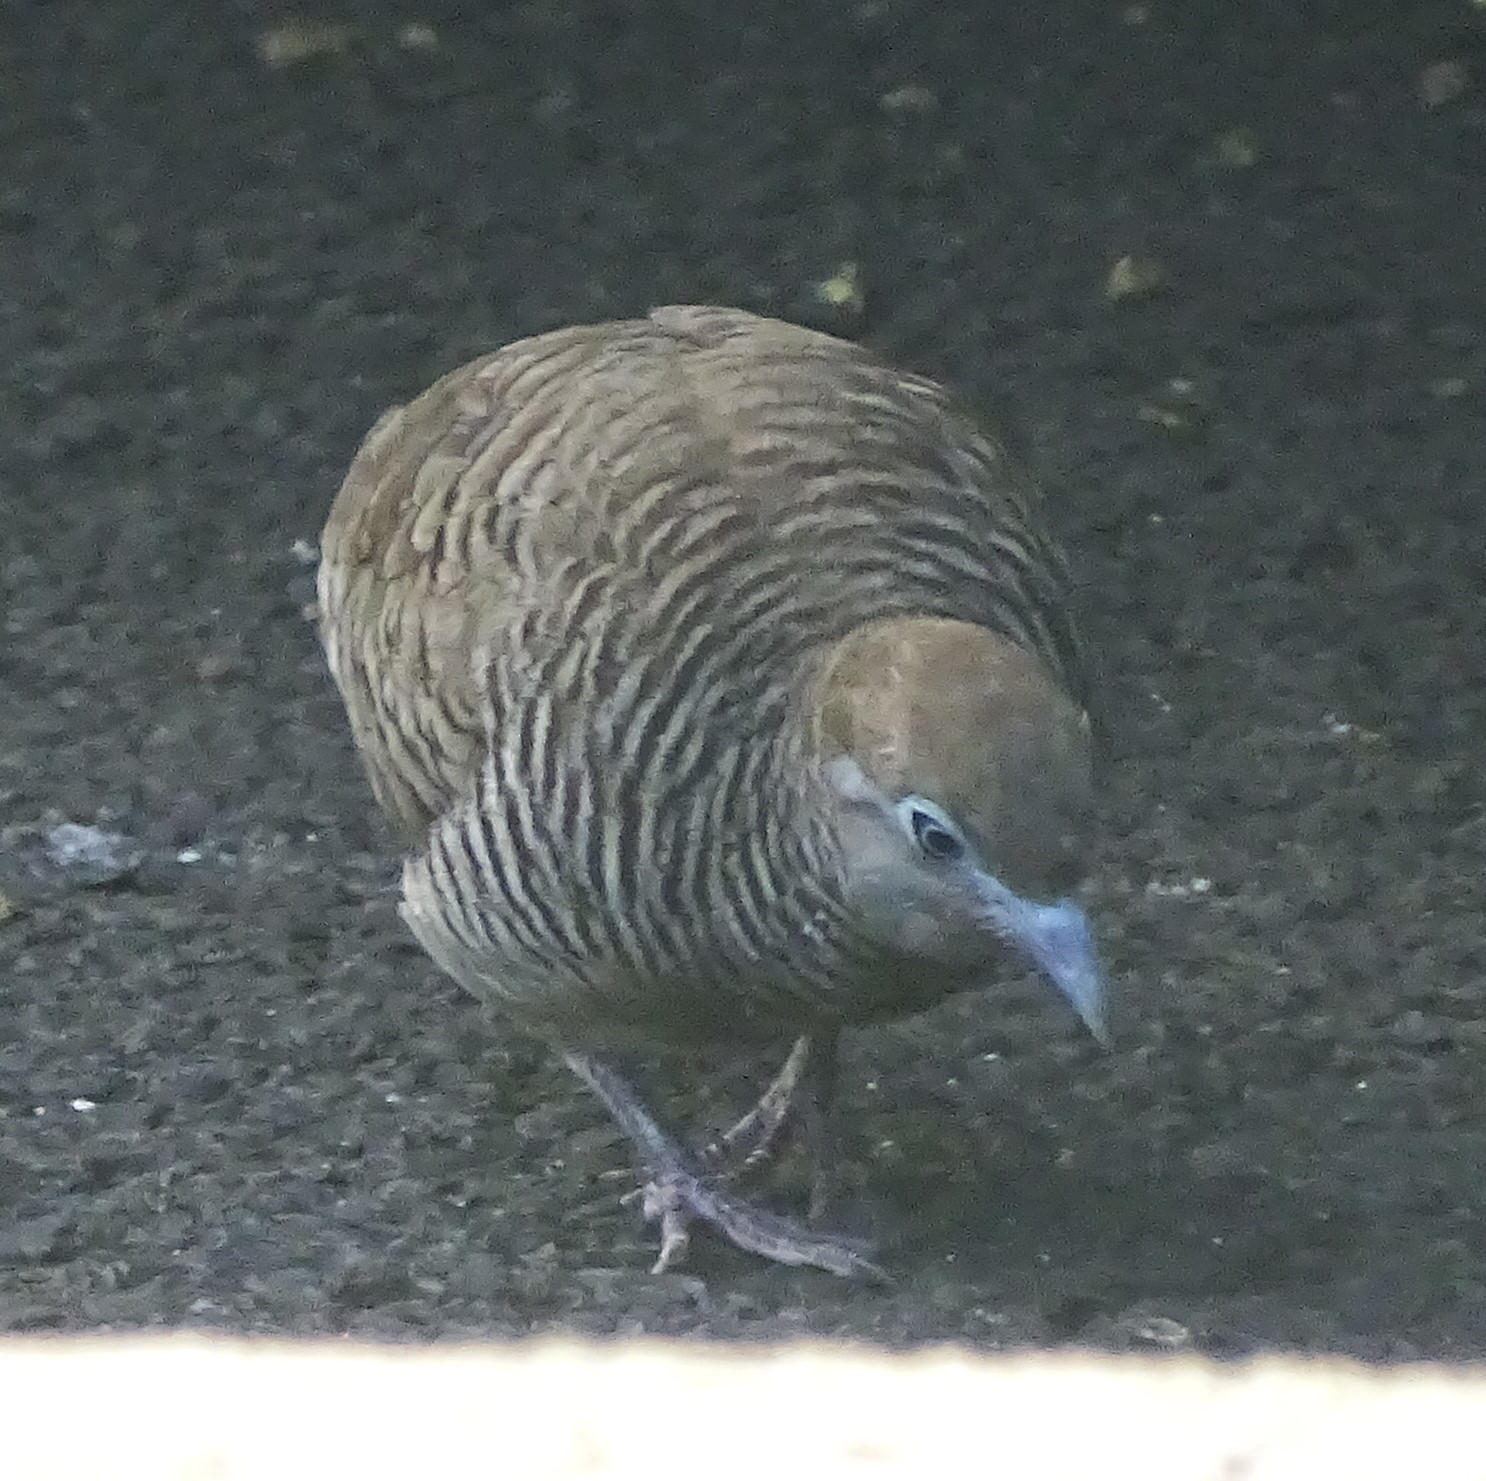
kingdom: Animalia
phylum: Chordata
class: Aves
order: Columbiformes
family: Columbidae
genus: Geopelia
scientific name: Geopelia striata
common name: Zebra dove
